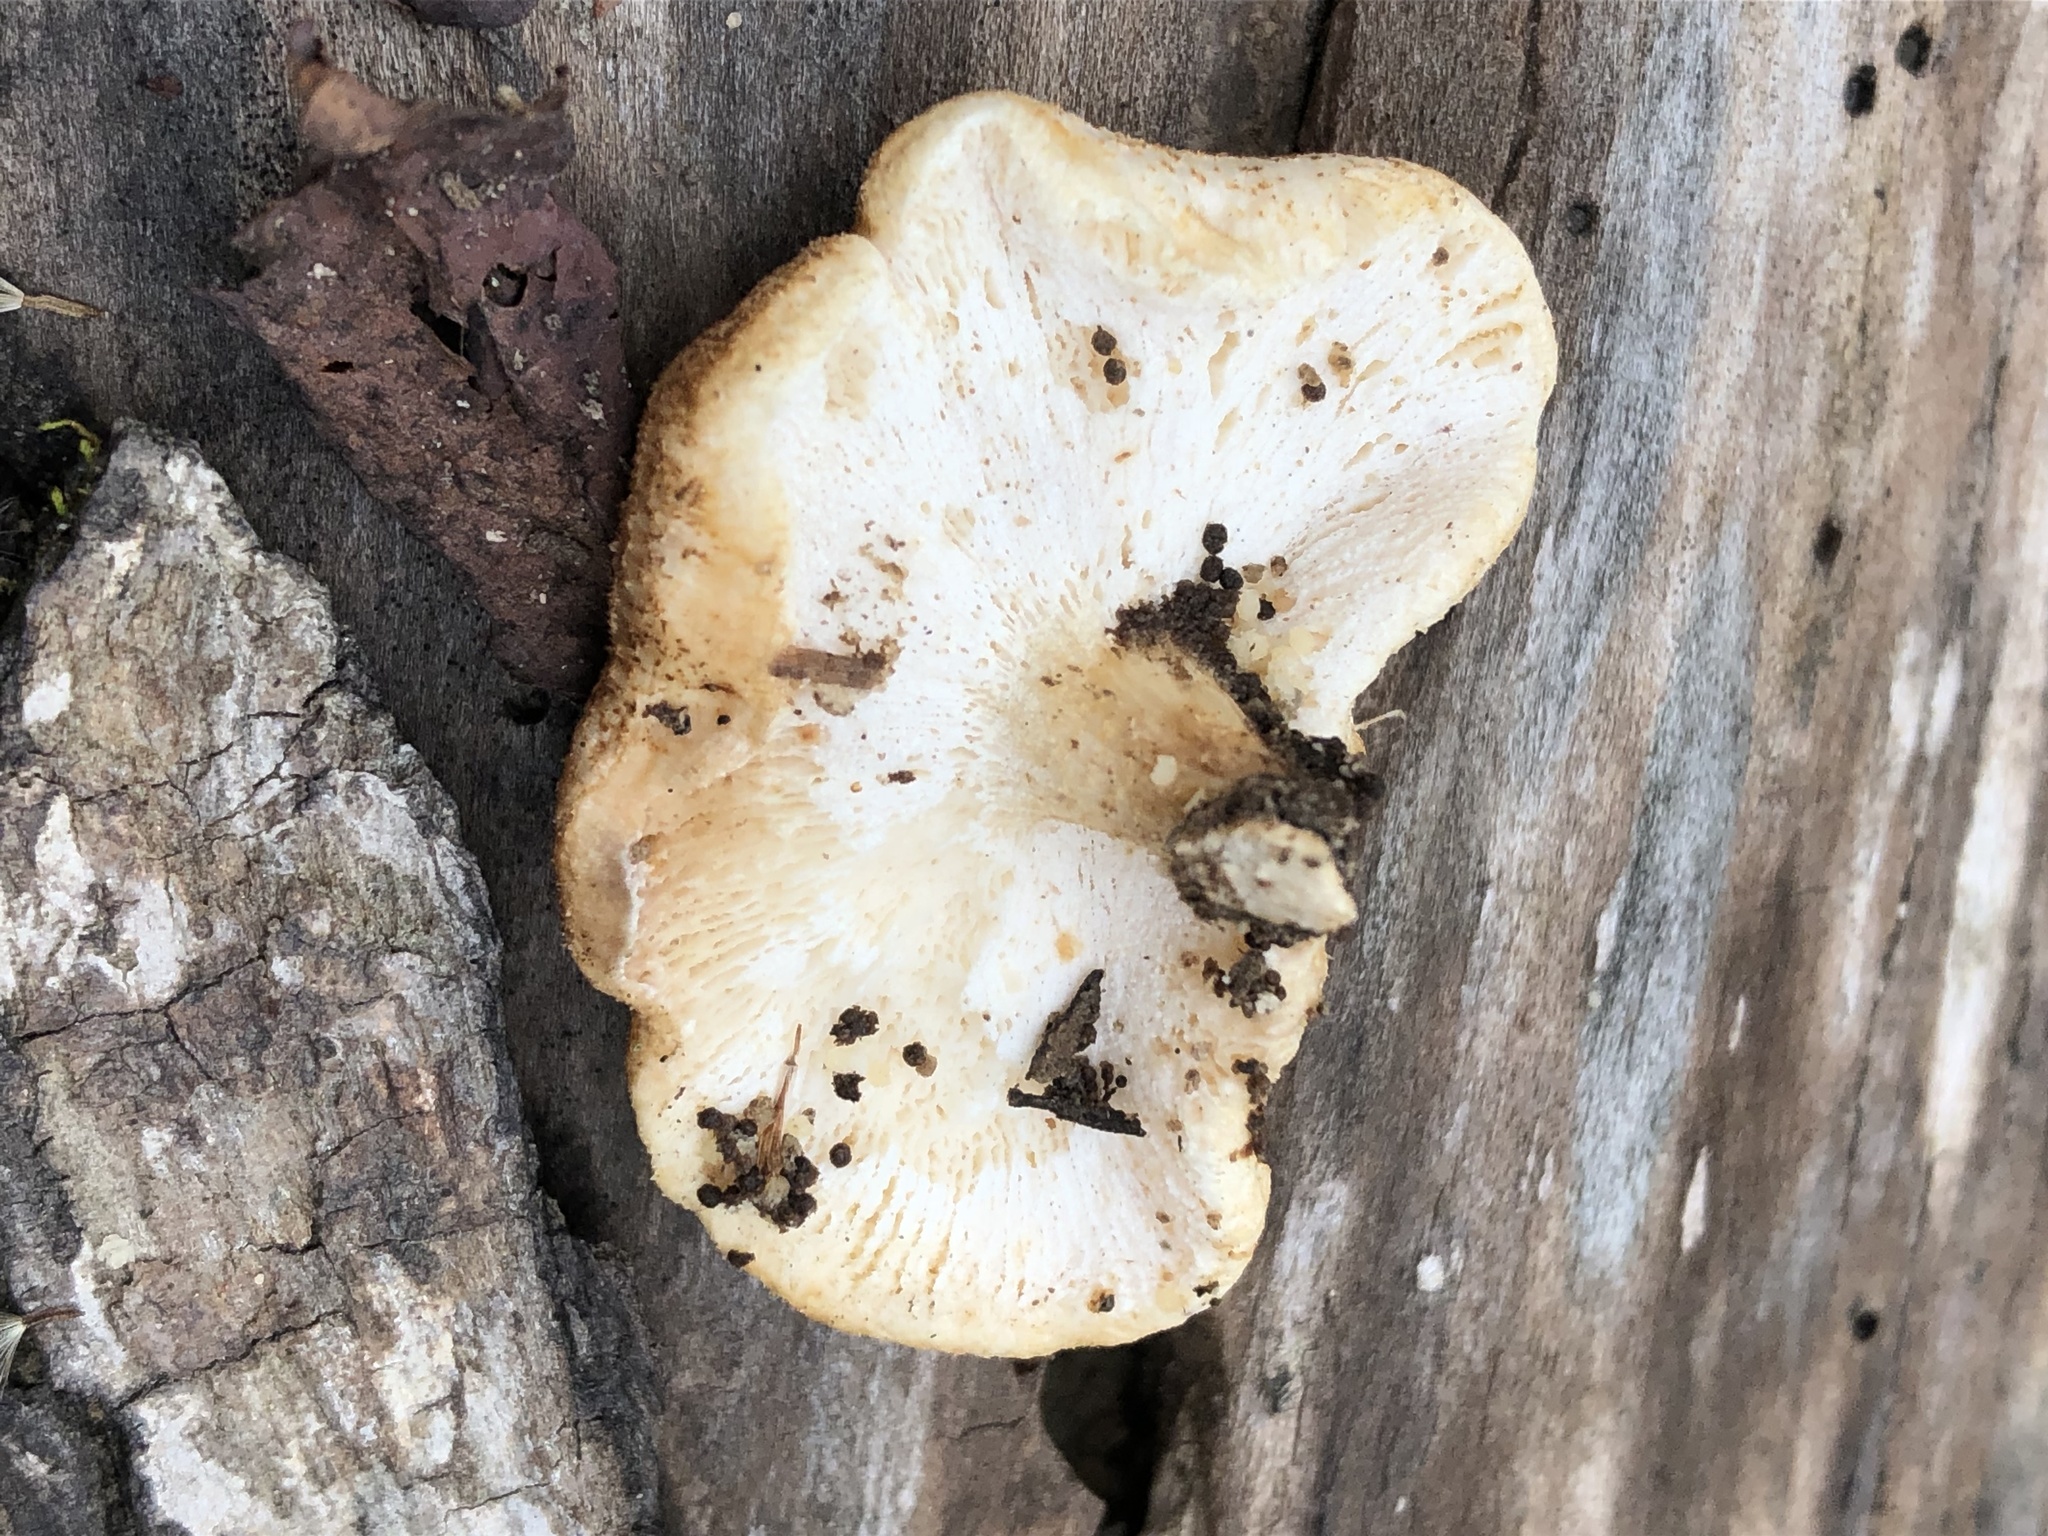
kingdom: Fungi
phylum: Basidiomycota
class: Agaricomycetes
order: Polyporales
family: Polyporaceae
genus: Lentinus
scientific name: Lentinus tigrinus
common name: Tiger sawgill
